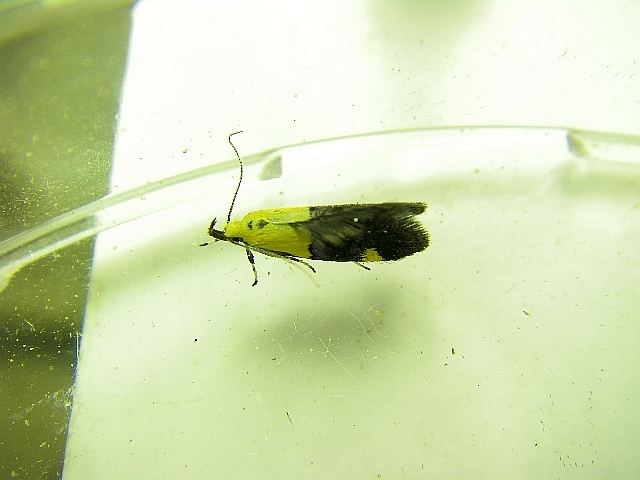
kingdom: Animalia
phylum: Arthropoda
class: Insecta
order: Lepidoptera
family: Oecophoridae
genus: Oecophora
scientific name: Oecophora bractella
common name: Gold-base tubic
